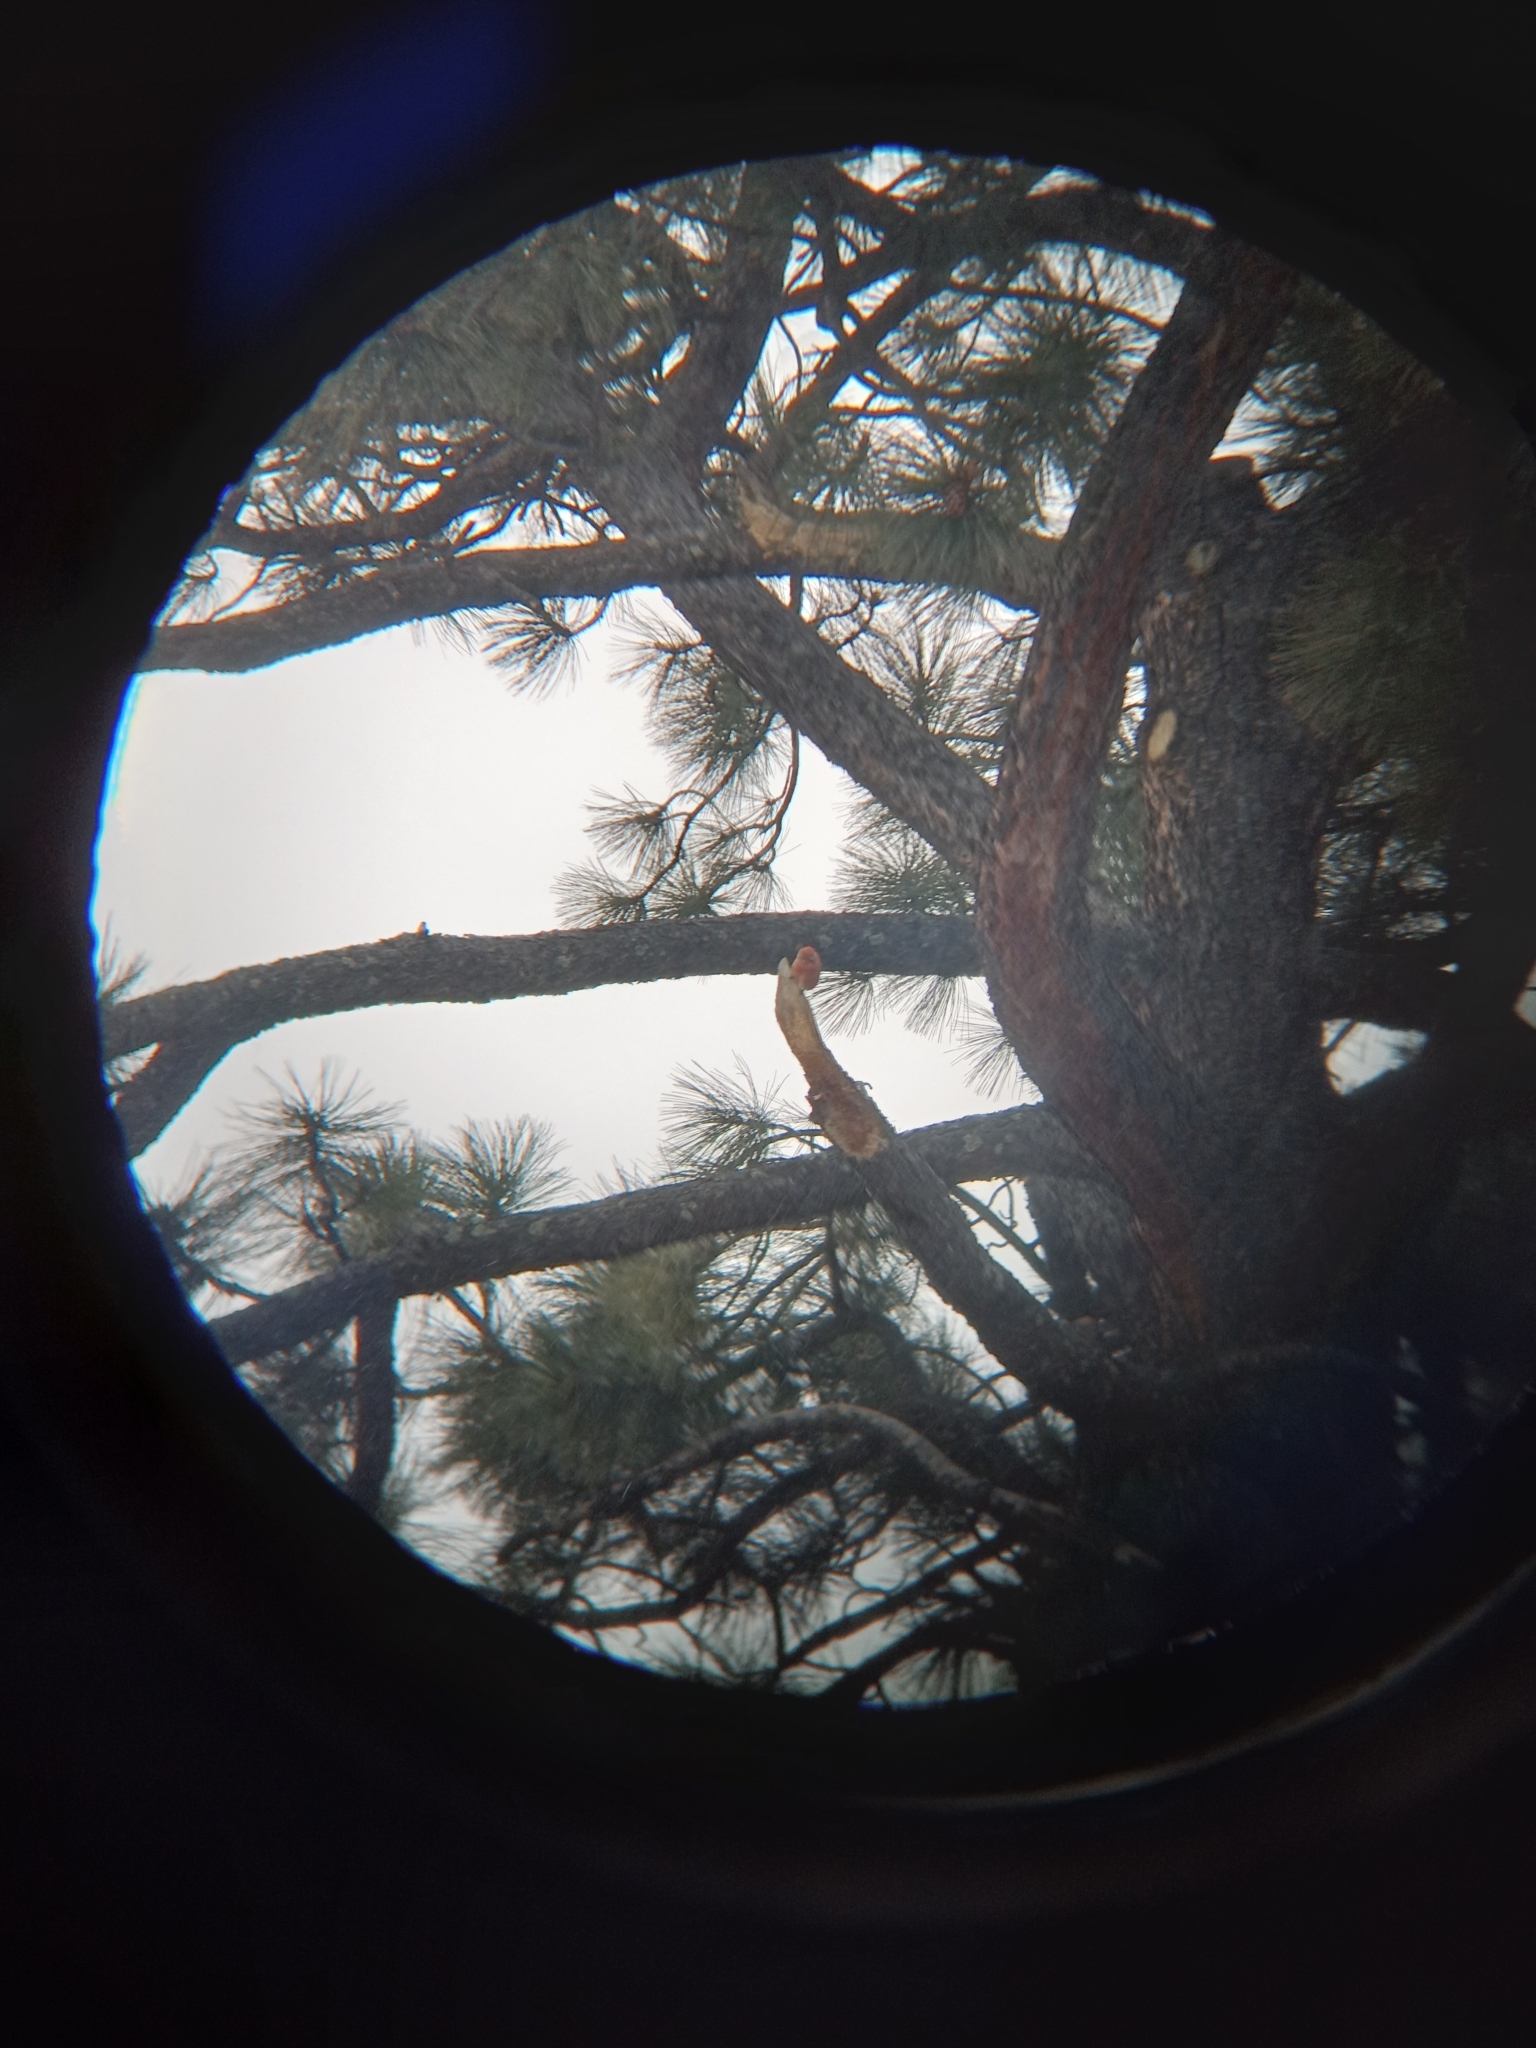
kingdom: Animalia
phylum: Chordata
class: Aves
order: Passeriformes
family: Fringillidae
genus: Loxia
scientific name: Loxia curvirostra
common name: Red crossbill
